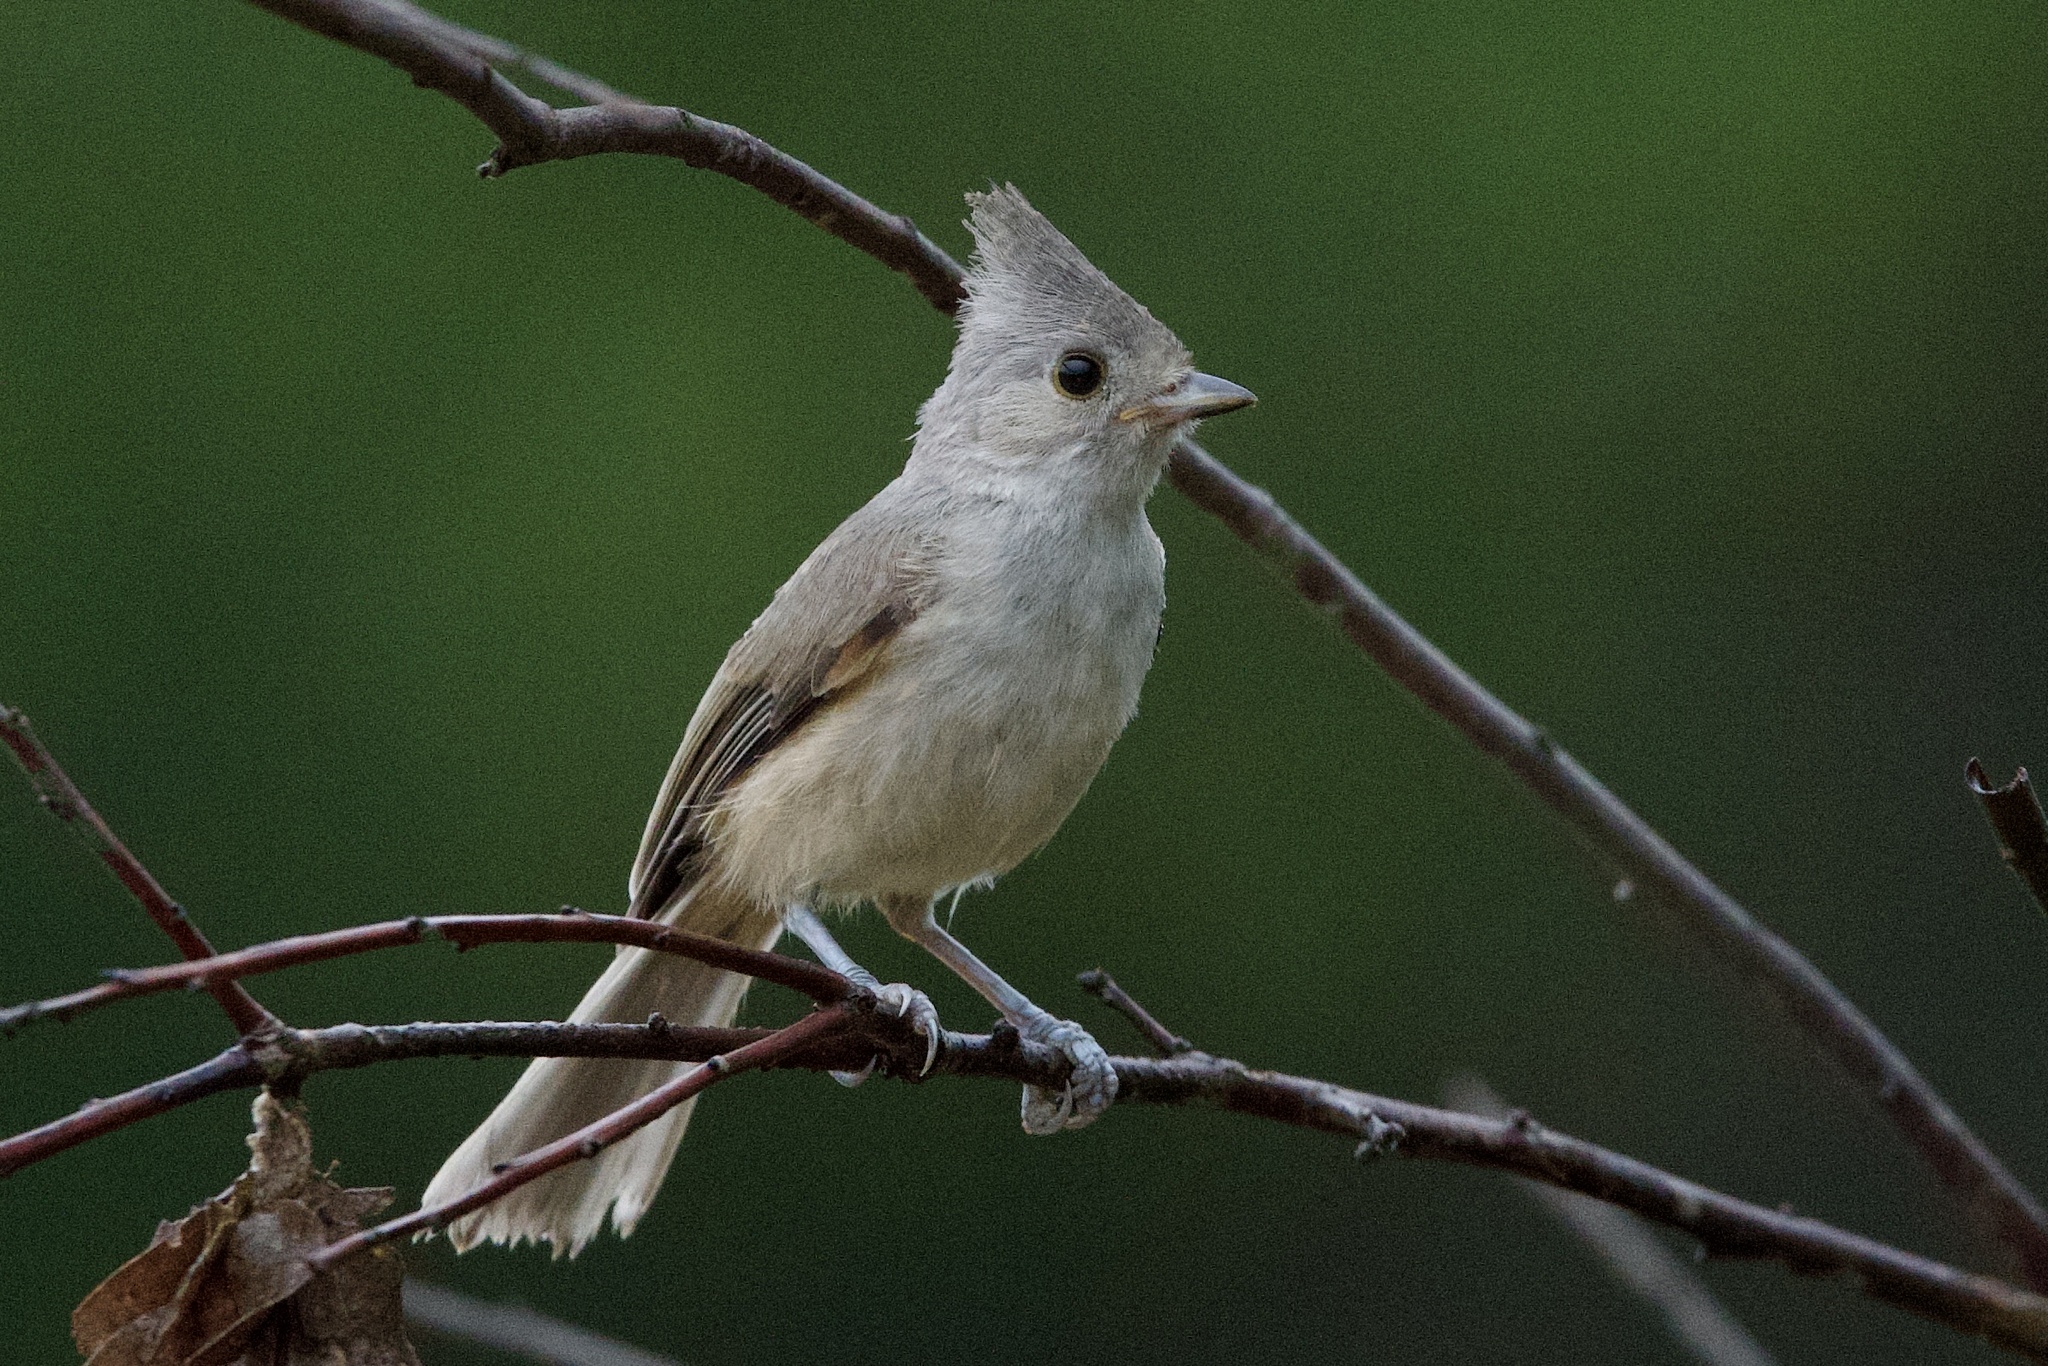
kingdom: Animalia
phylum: Chordata
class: Aves
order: Passeriformes
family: Paridae
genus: Baeolophus
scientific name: Baeolophus atricristatus
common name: Black-crested titmouse
